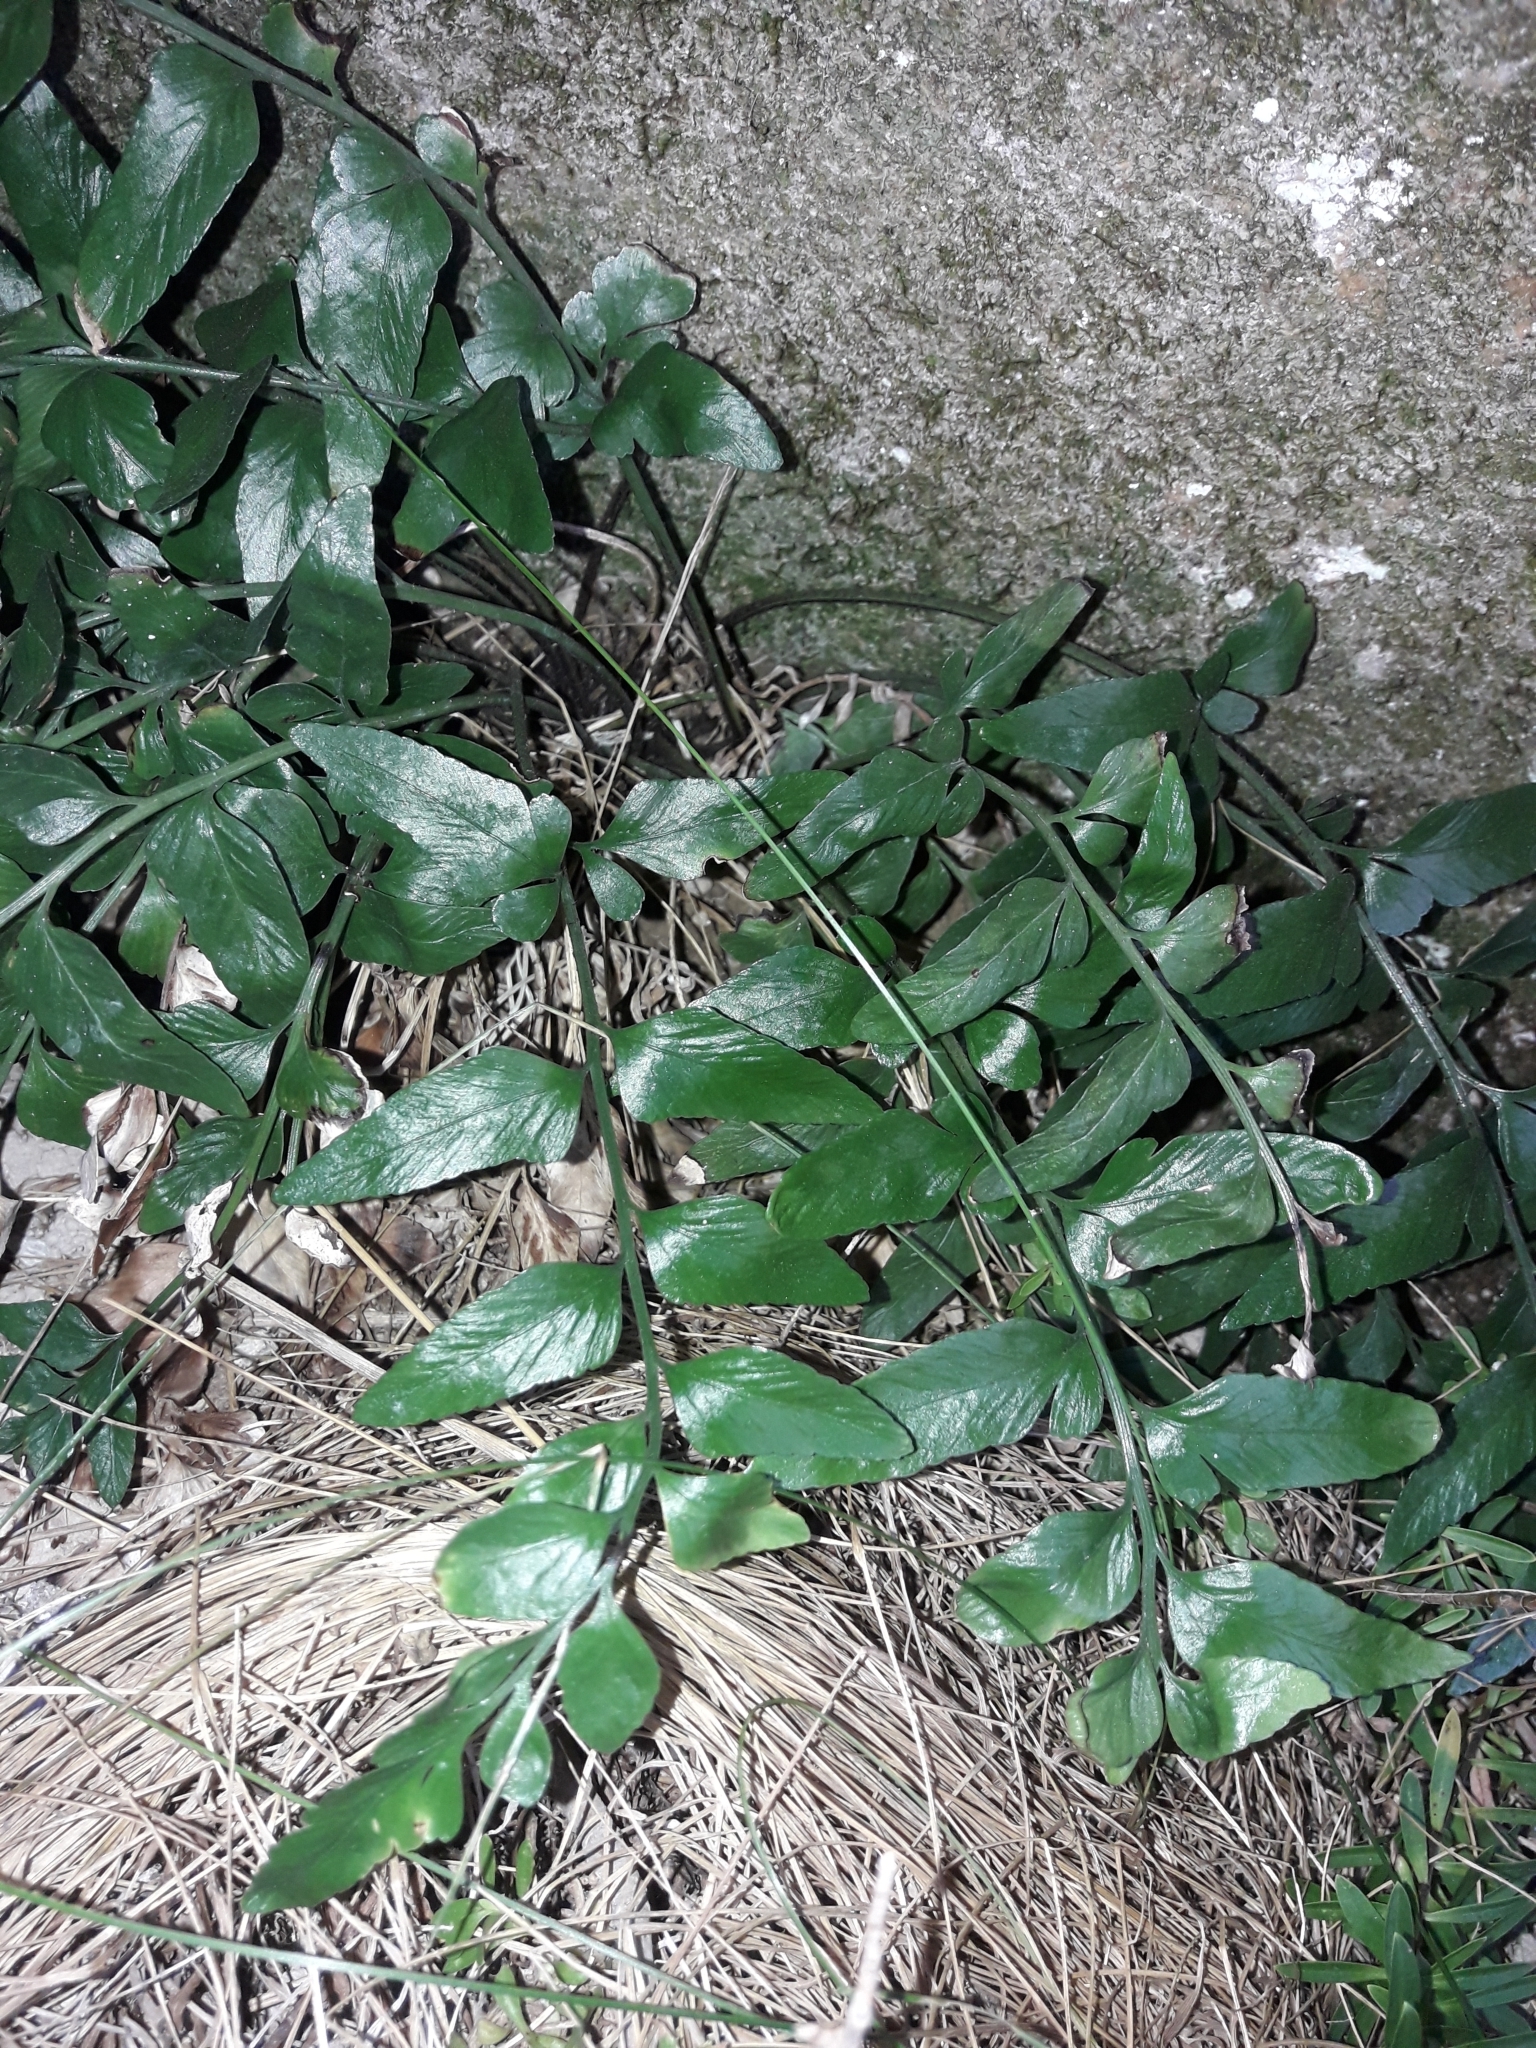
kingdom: Plantae
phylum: Tracheophyta
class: Polypodiopsida
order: Polypodiales
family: Aspleniaceae
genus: Asplenium
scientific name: Asplenium lyallii
